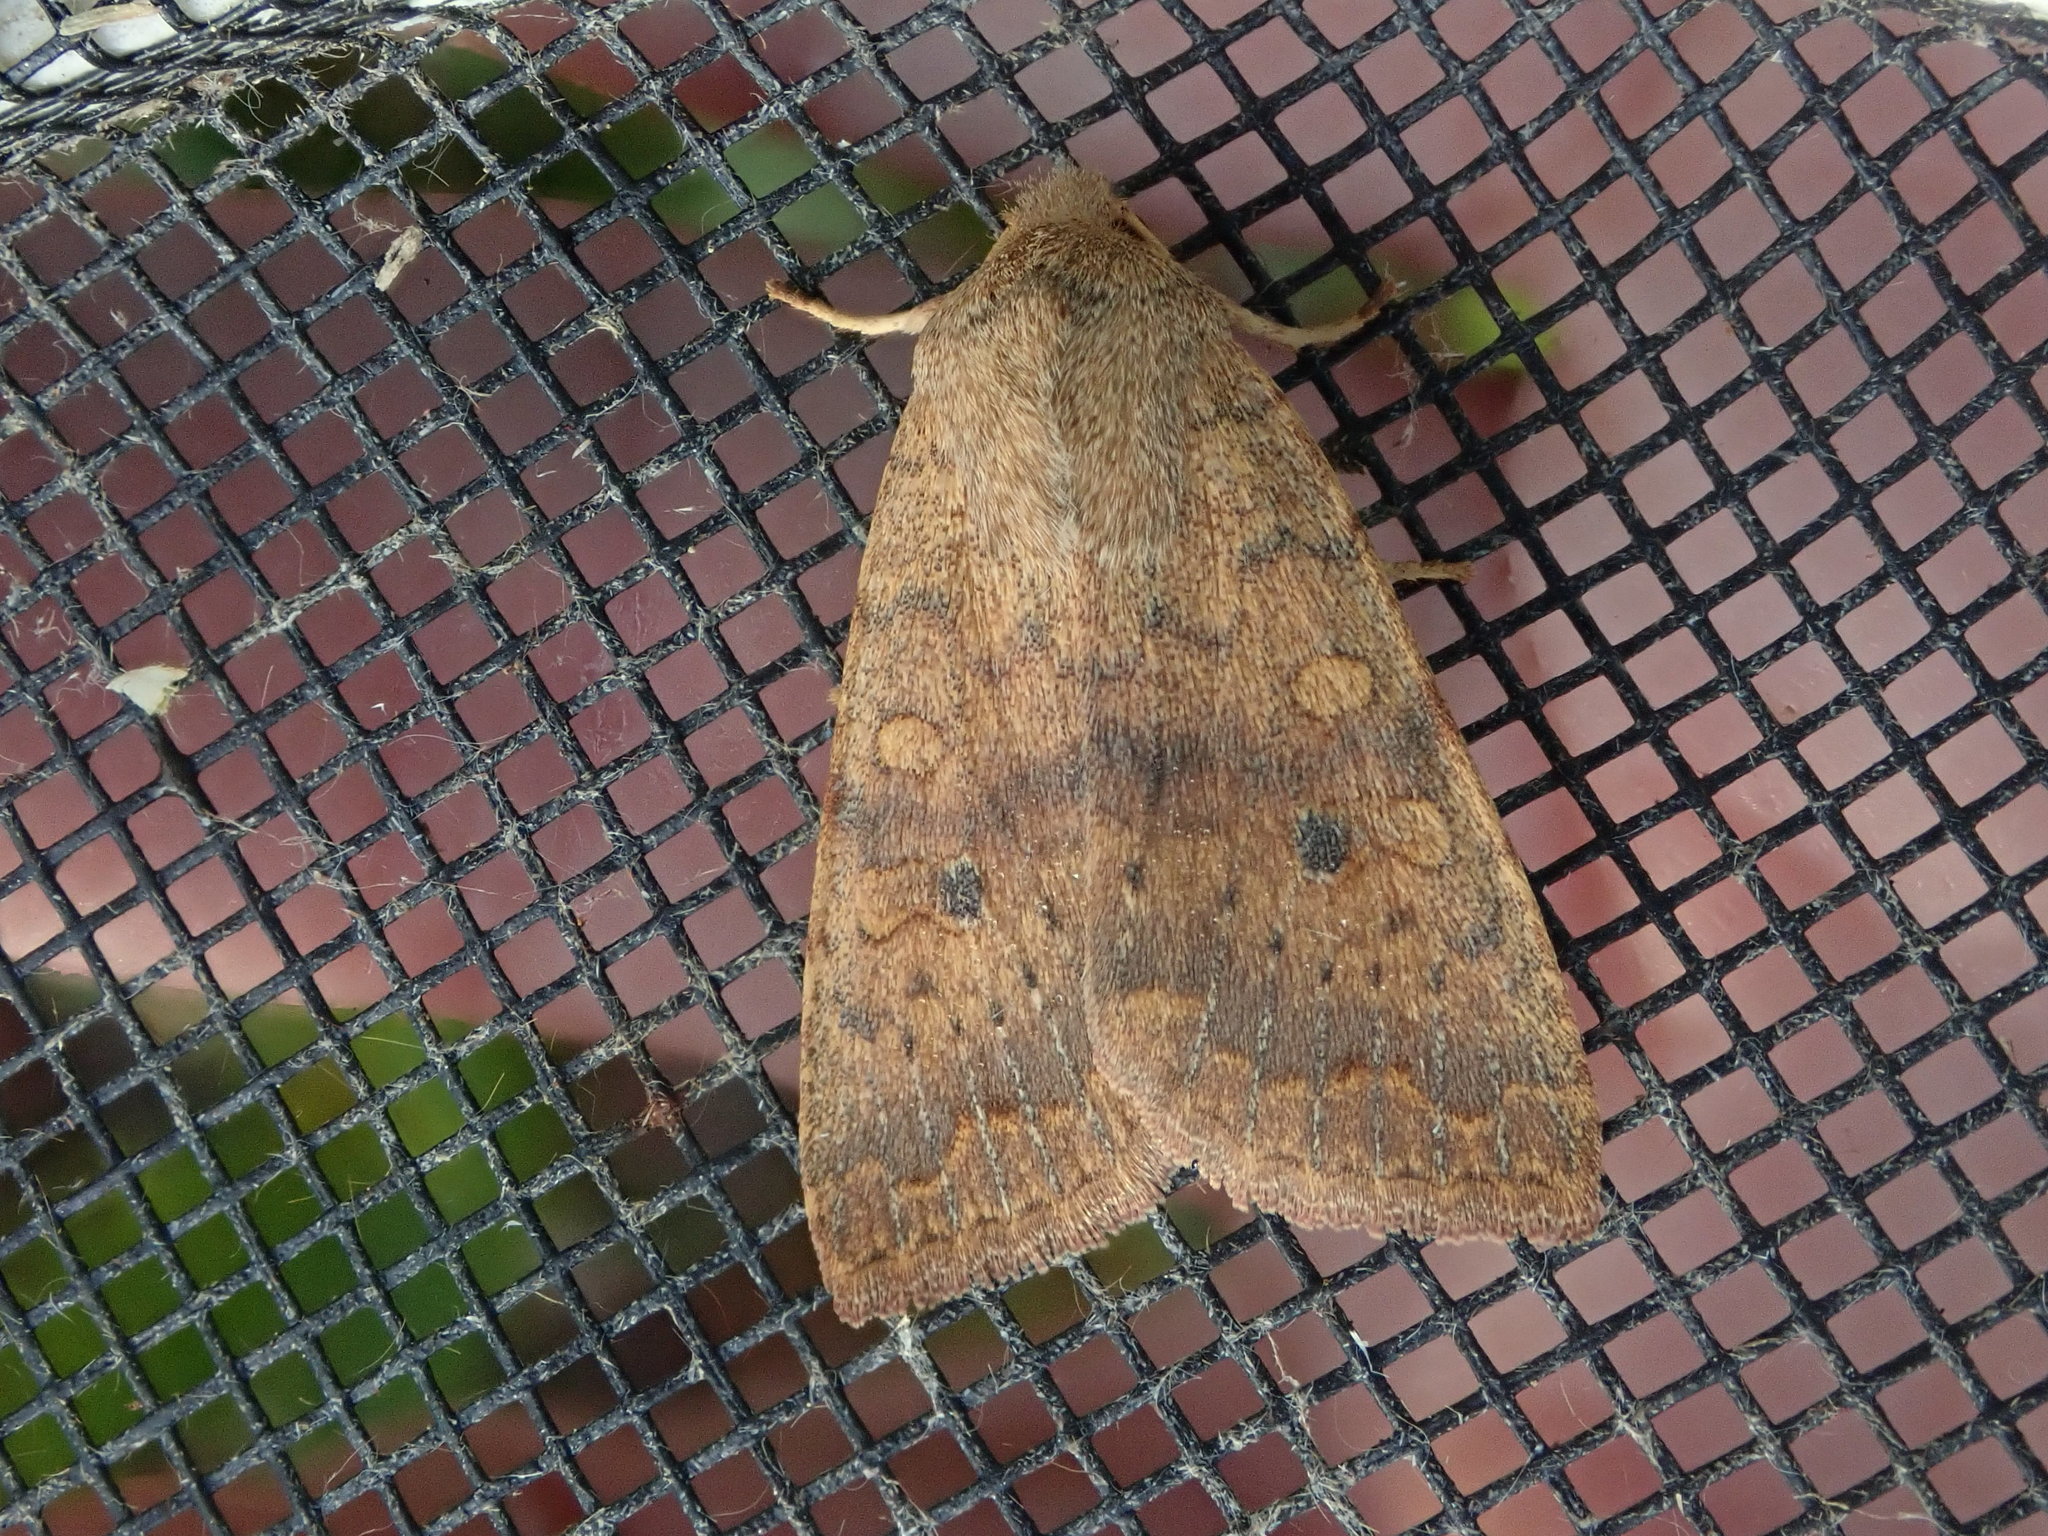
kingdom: Animalia
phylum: Arthropoda
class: Insecta
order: Lepidoptera
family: Noctuidae
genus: Agrochola
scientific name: Agrochola bicolorago
